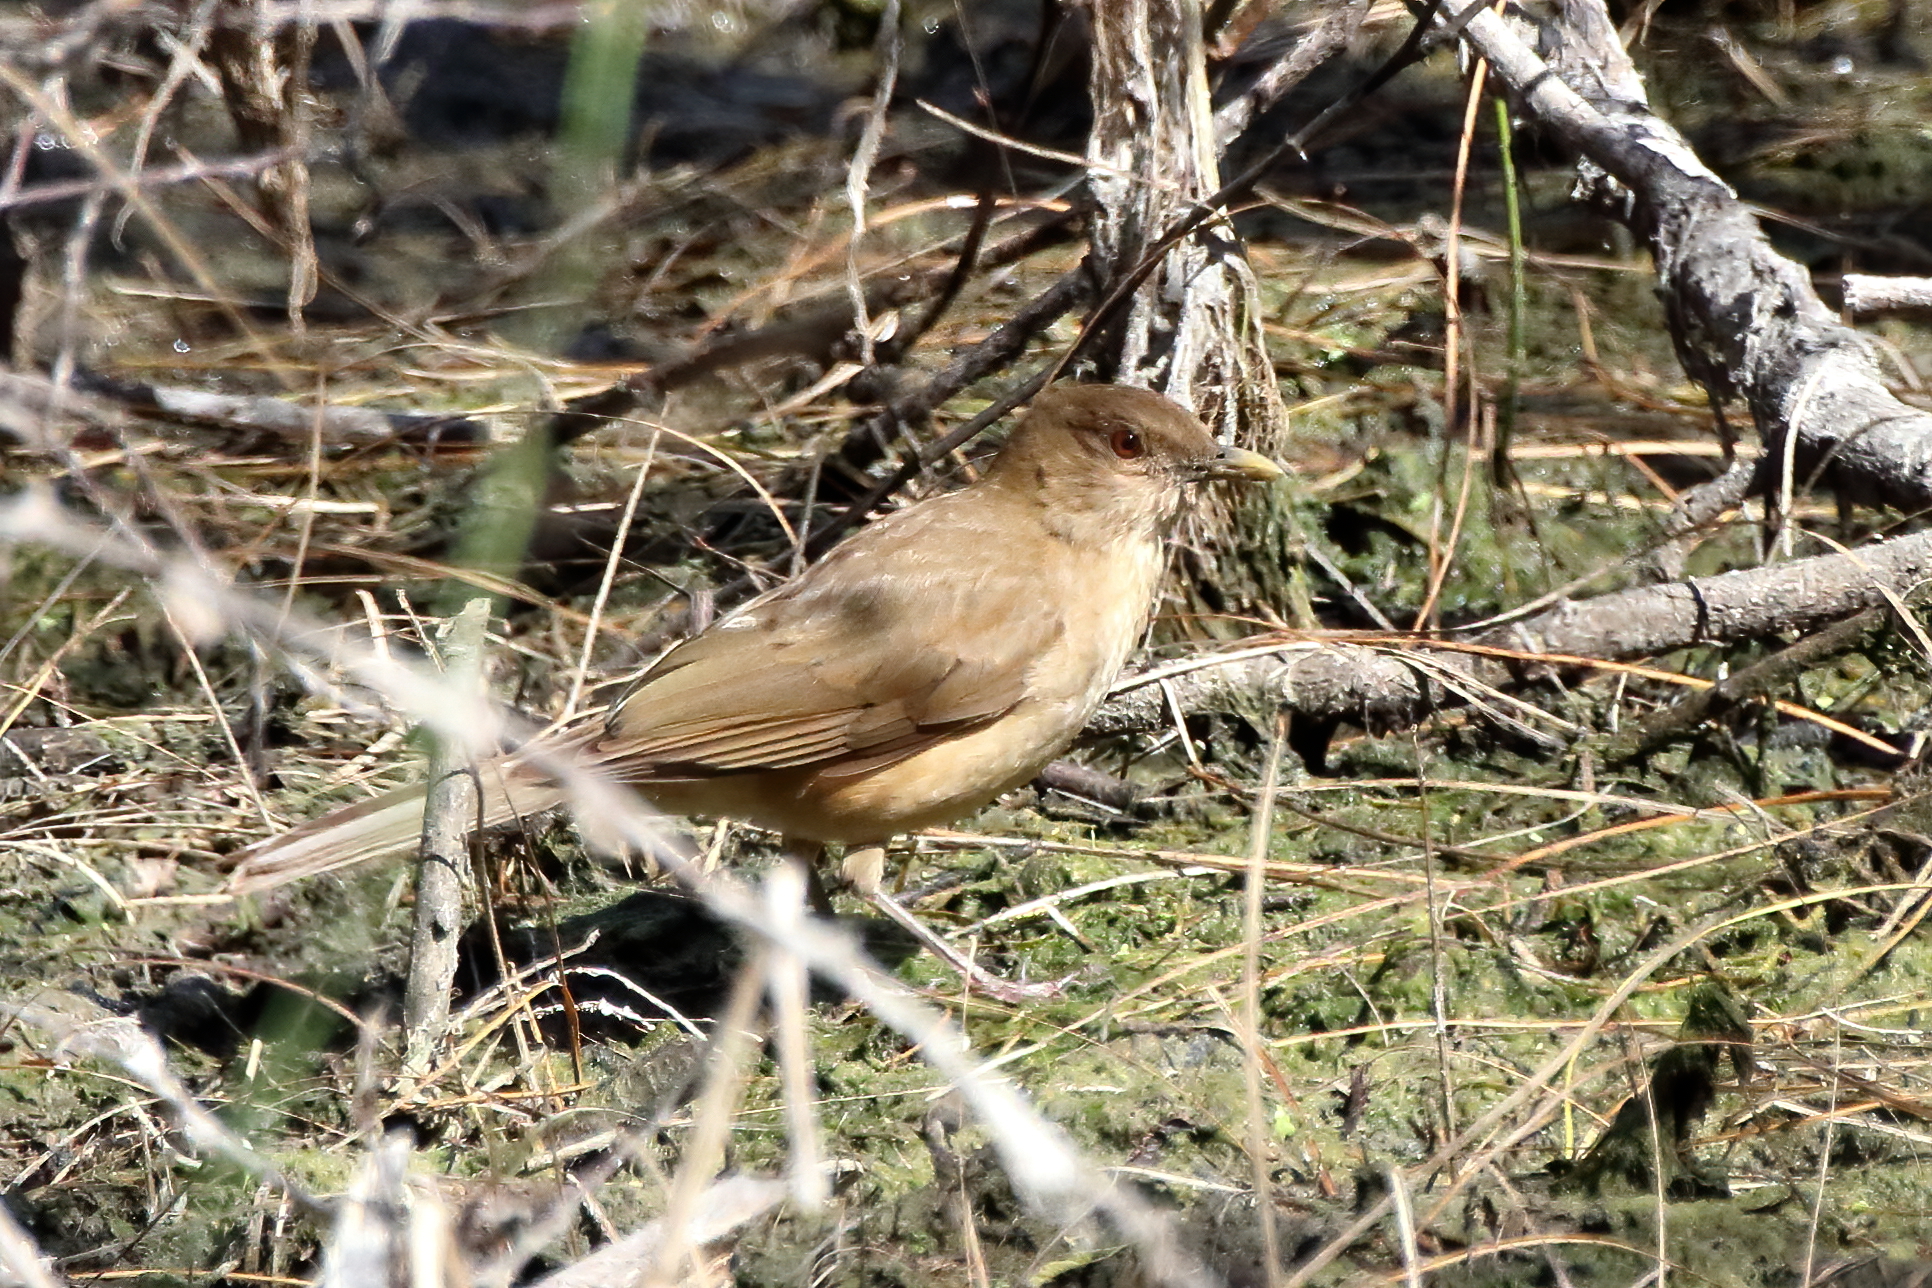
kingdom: Animalia
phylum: Chordata
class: Aves
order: Passeriformes
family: Turdidae
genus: Turdus
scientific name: Turdus grayi
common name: Clay-colored thrush
